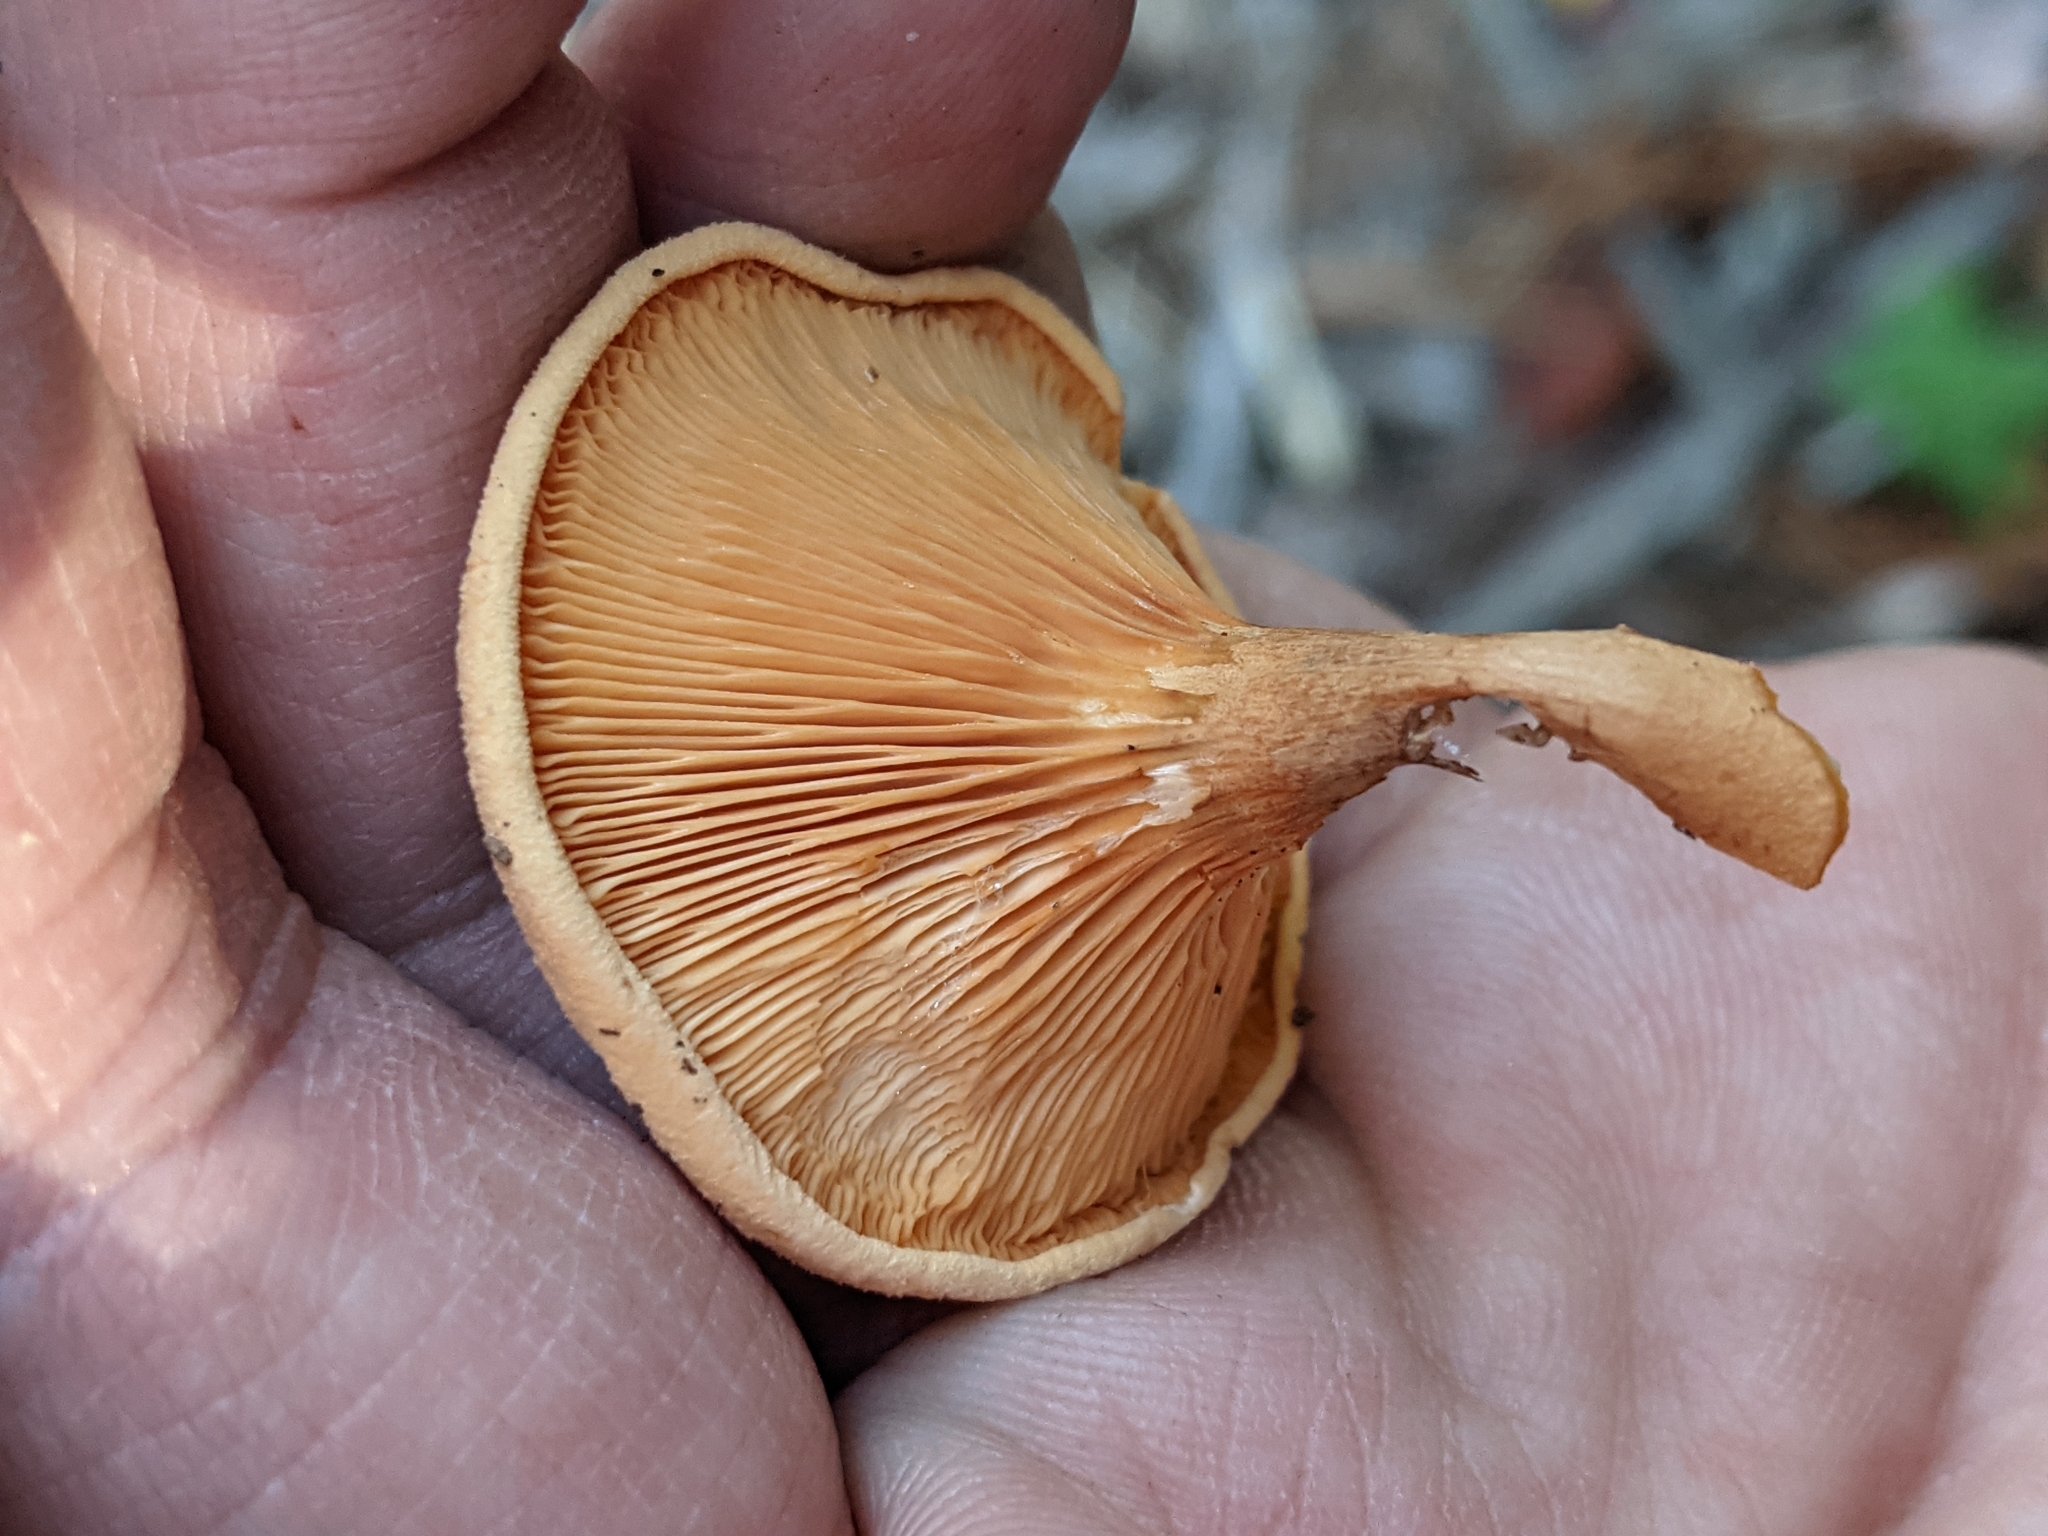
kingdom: Fungi
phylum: Basidiomycota
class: Agaricomycetes
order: Boletales
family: Hygrophoropsidaceae
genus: Hygrophoropsis
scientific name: Hygrophoropsis aurantiaca
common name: False chanterelle
